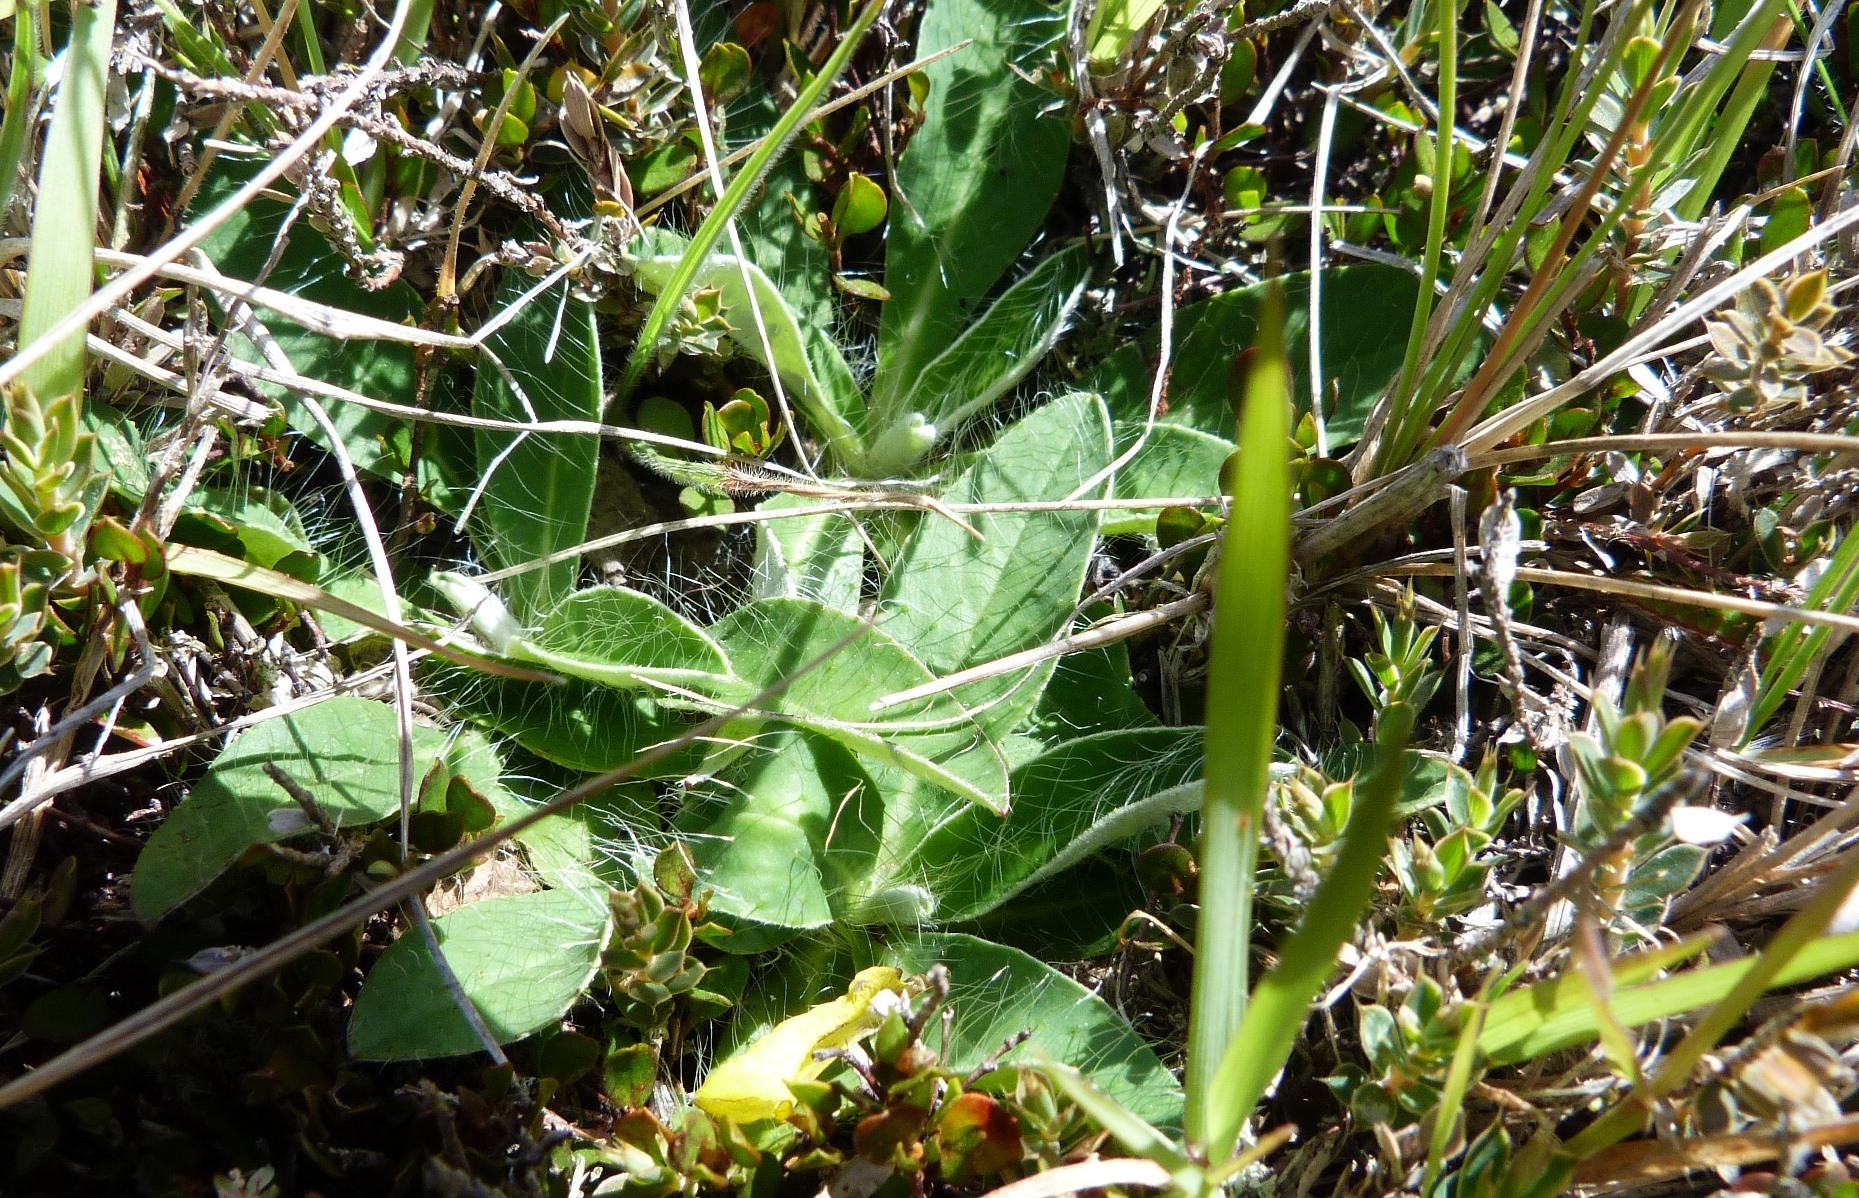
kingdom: Plantae
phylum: Tracheophyta
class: Magnoliopsida
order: Asterales
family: Asteraceae
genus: Pilosella
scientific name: Pilosella officinarum
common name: Mouse-ear hawkweed
